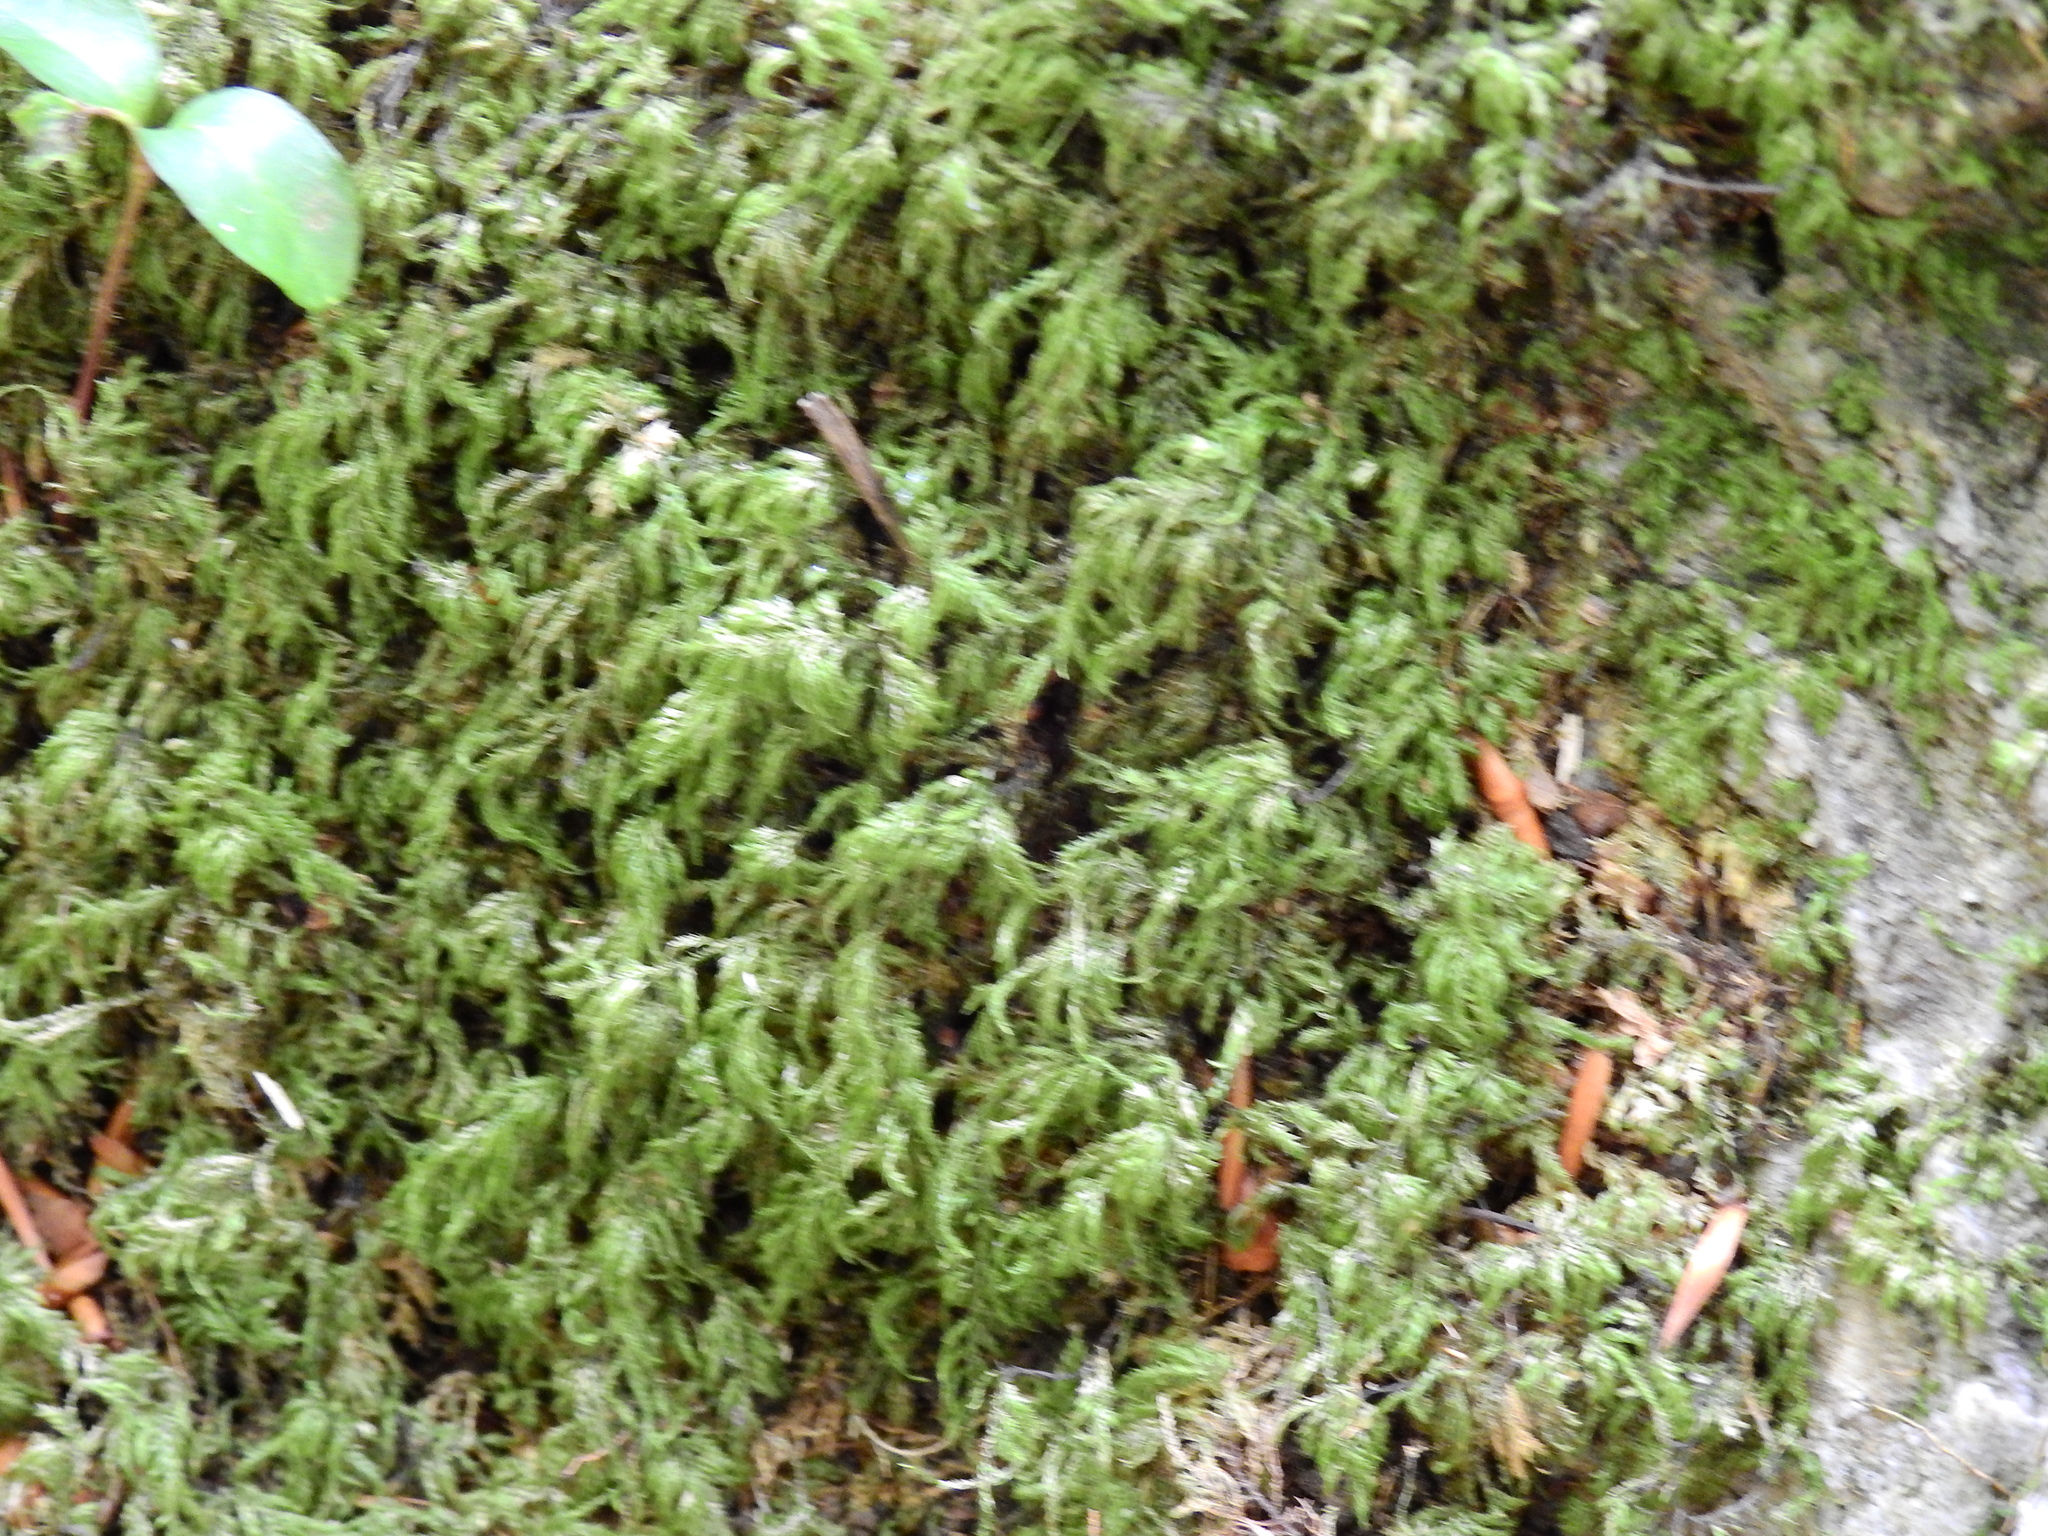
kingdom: Plantae
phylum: Bryophyta
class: Bryopsida
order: Hypnales
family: Lembophyllaceae
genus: Pseudisothecium
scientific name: Pseudisothecium myosuroides
